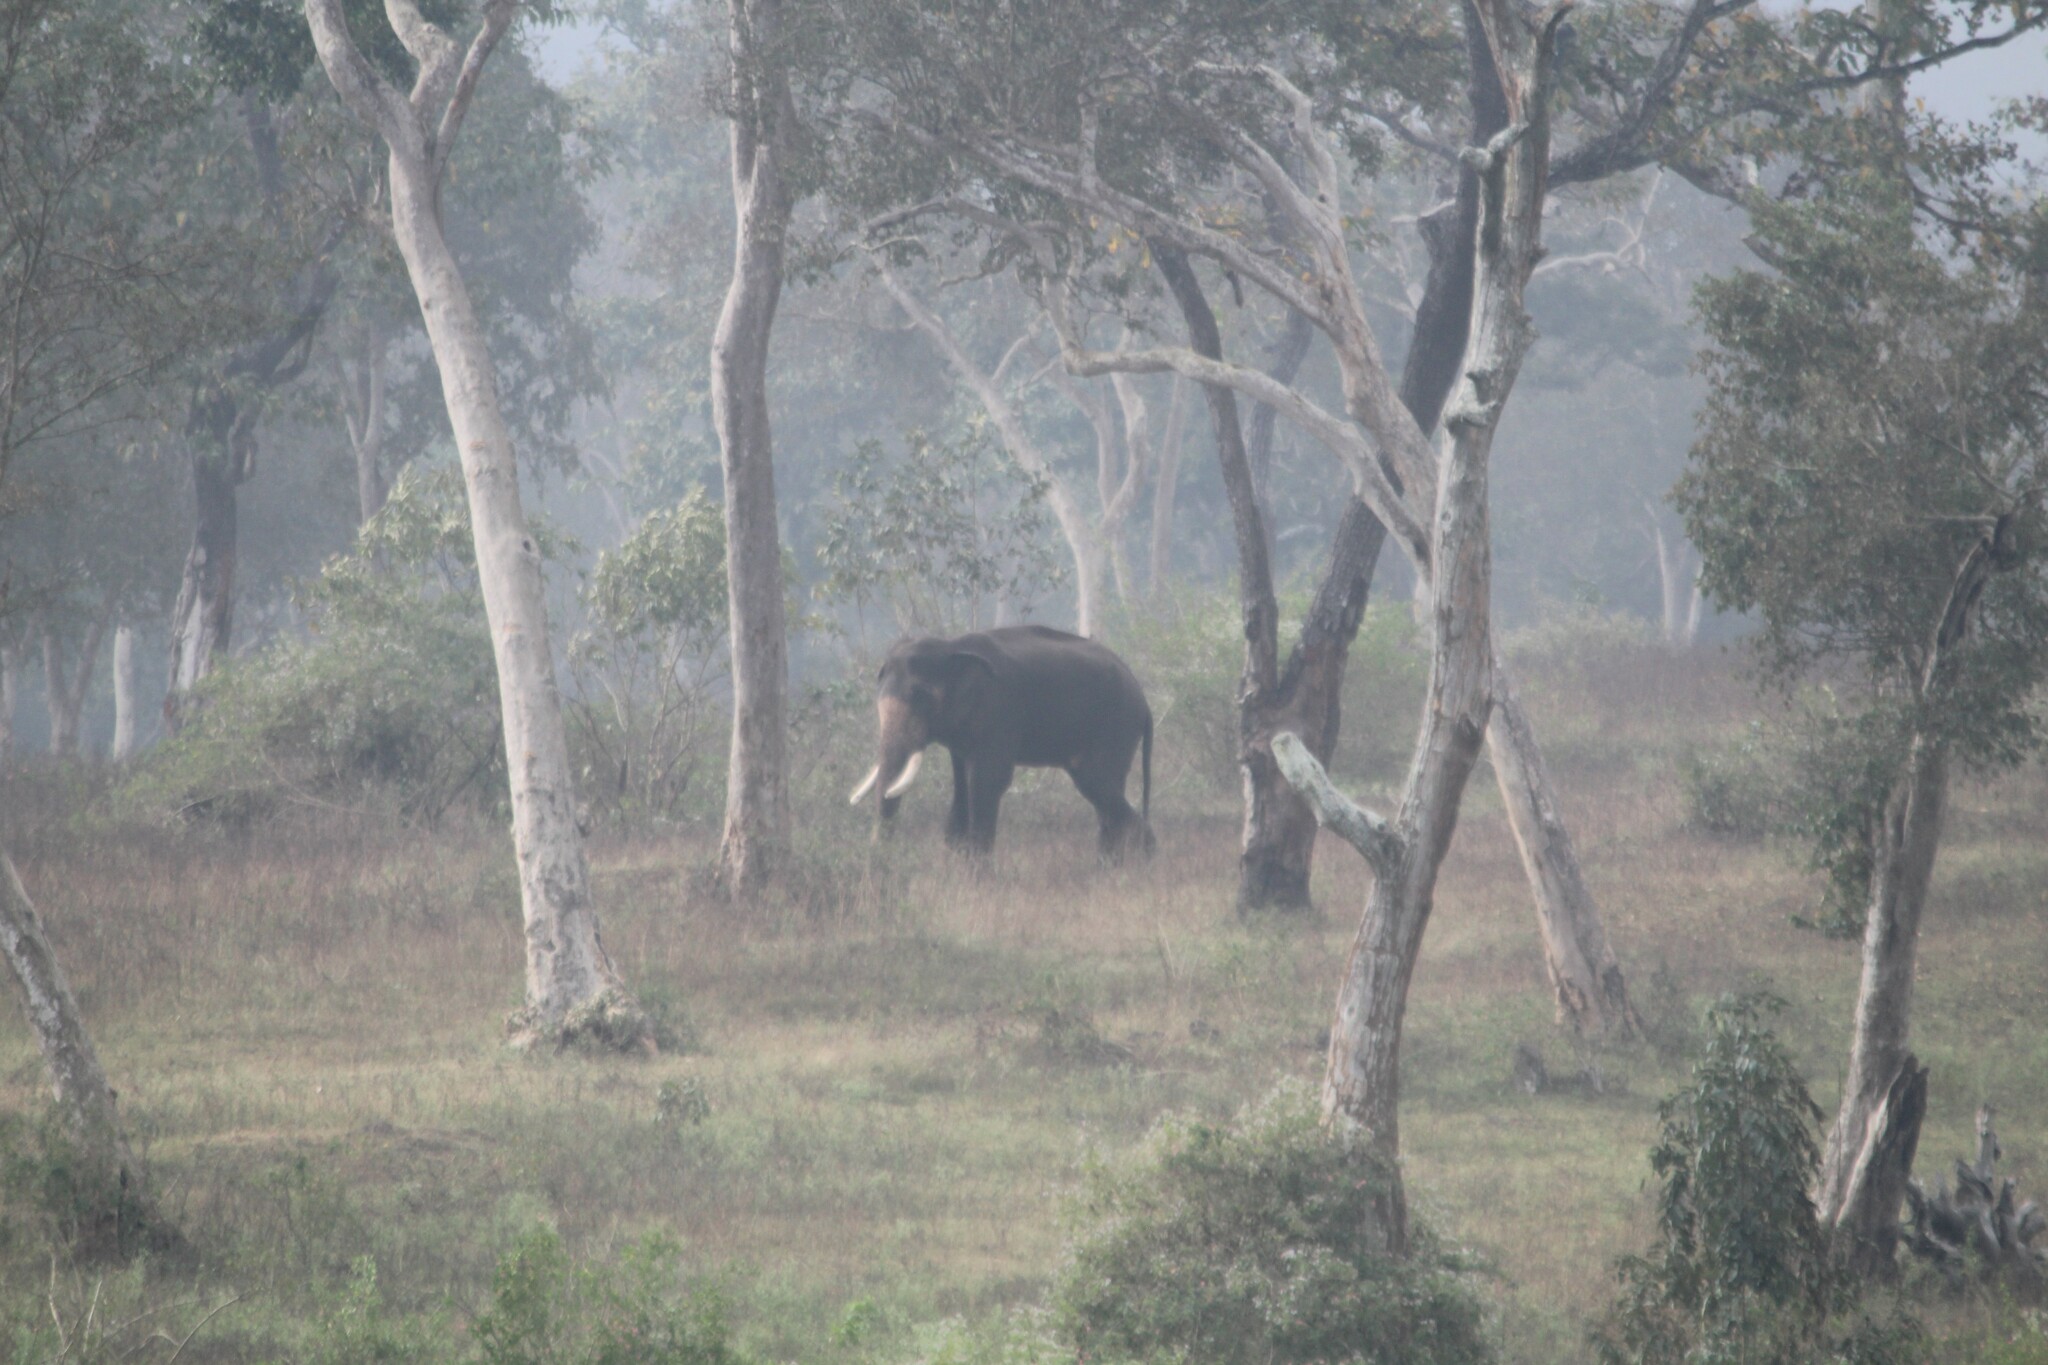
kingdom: Animalia
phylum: Chordata
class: Mammalia
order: Proboscidea
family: Elephantidae
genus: Elephas
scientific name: Elephas maximus
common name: Asian elephant
